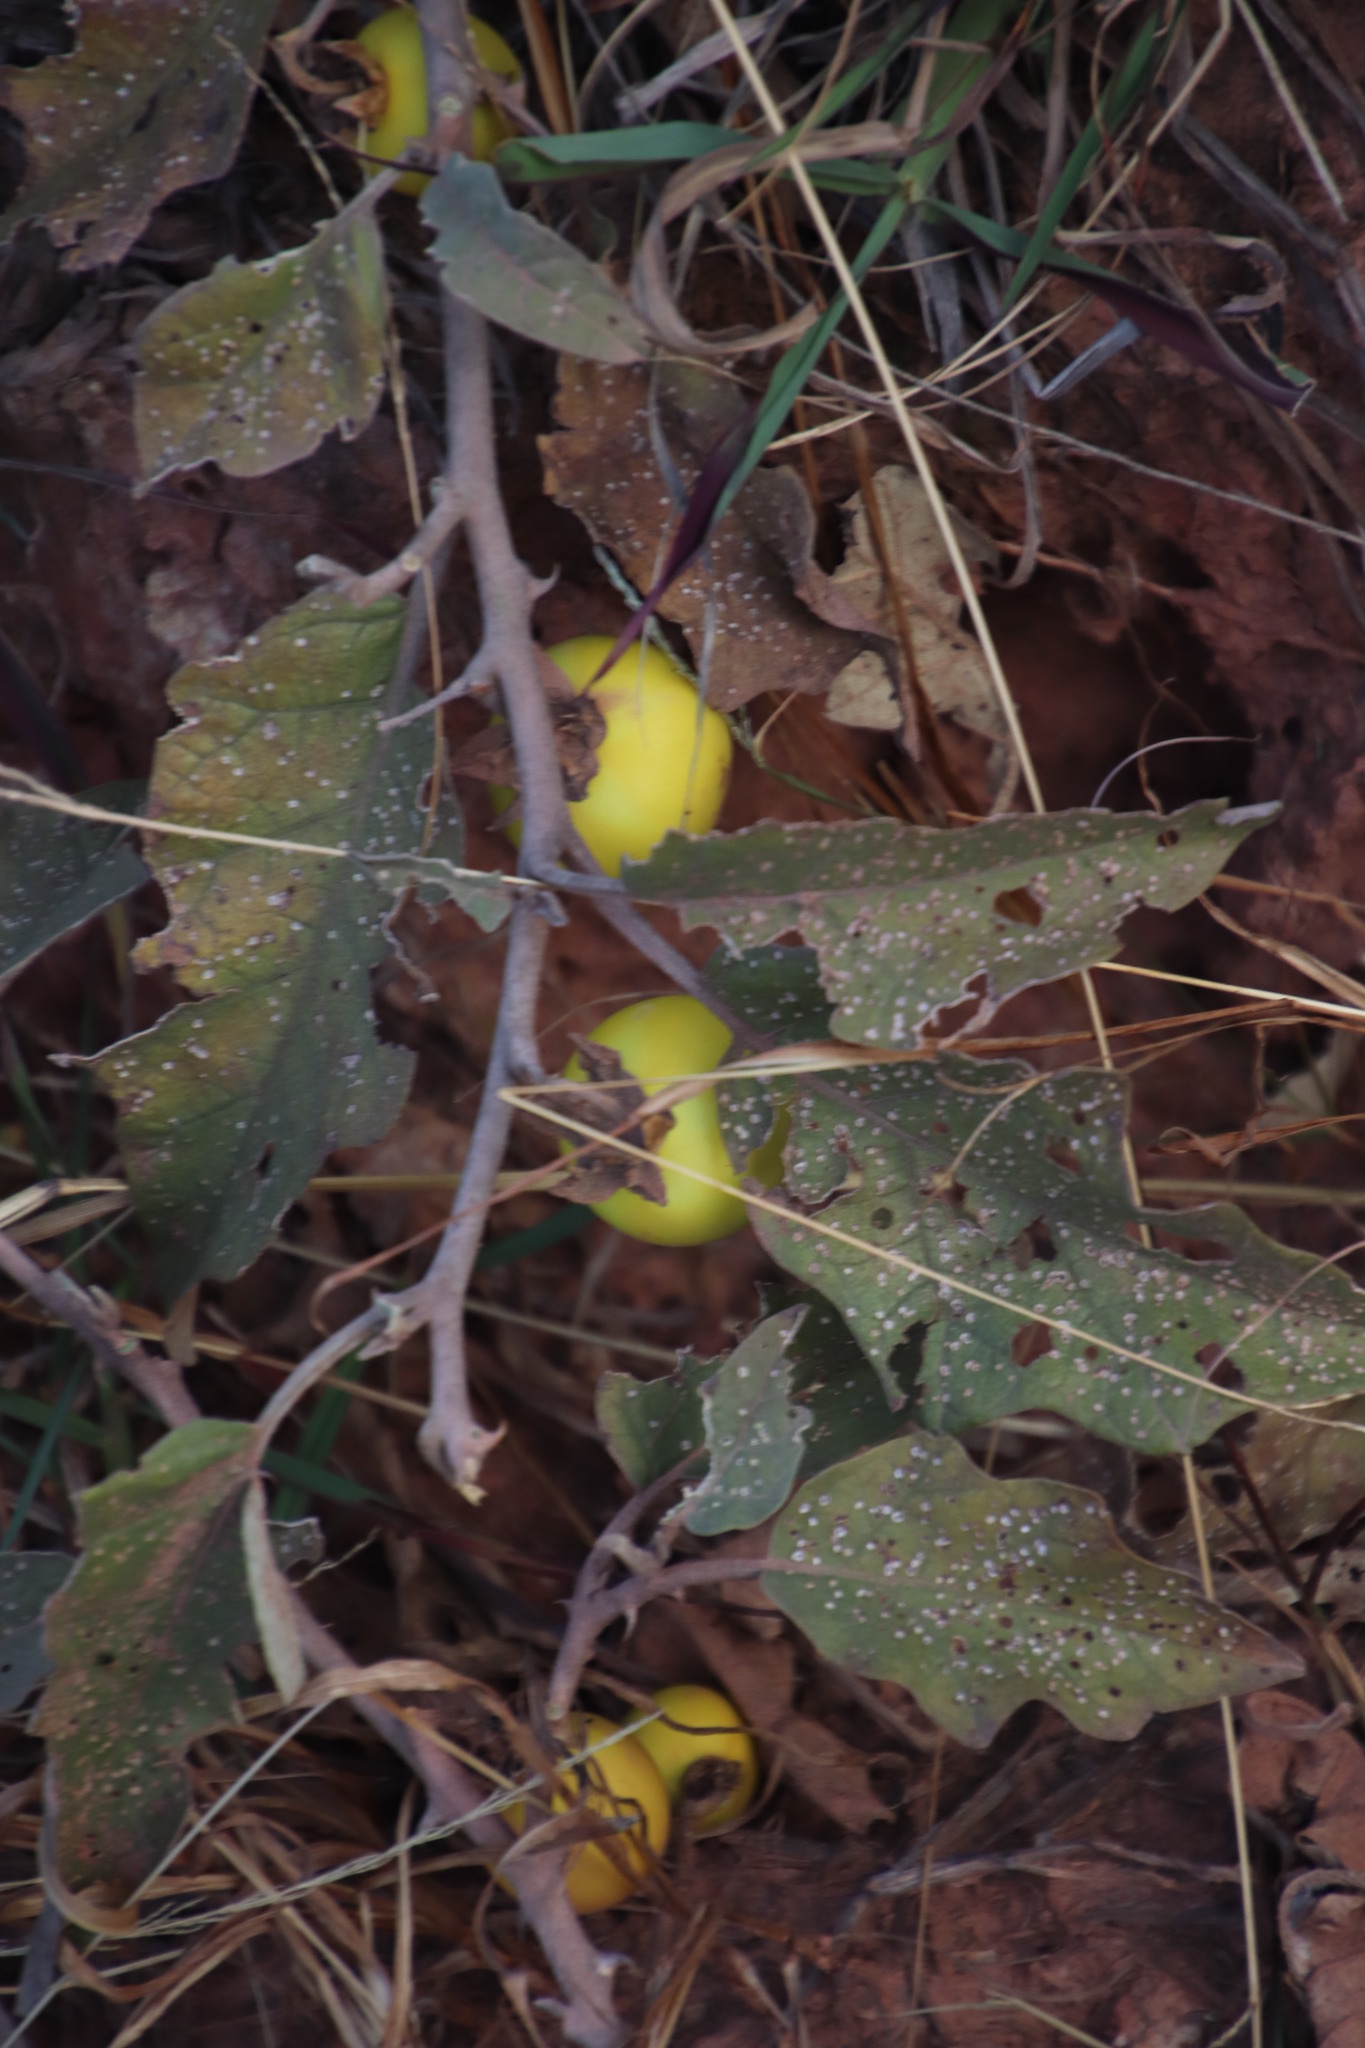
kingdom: Plantae
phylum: Tracheophyta
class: Magnoliopsida
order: Solanales
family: Solanaceae
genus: Solanum
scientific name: Solanum lichtensteinii
